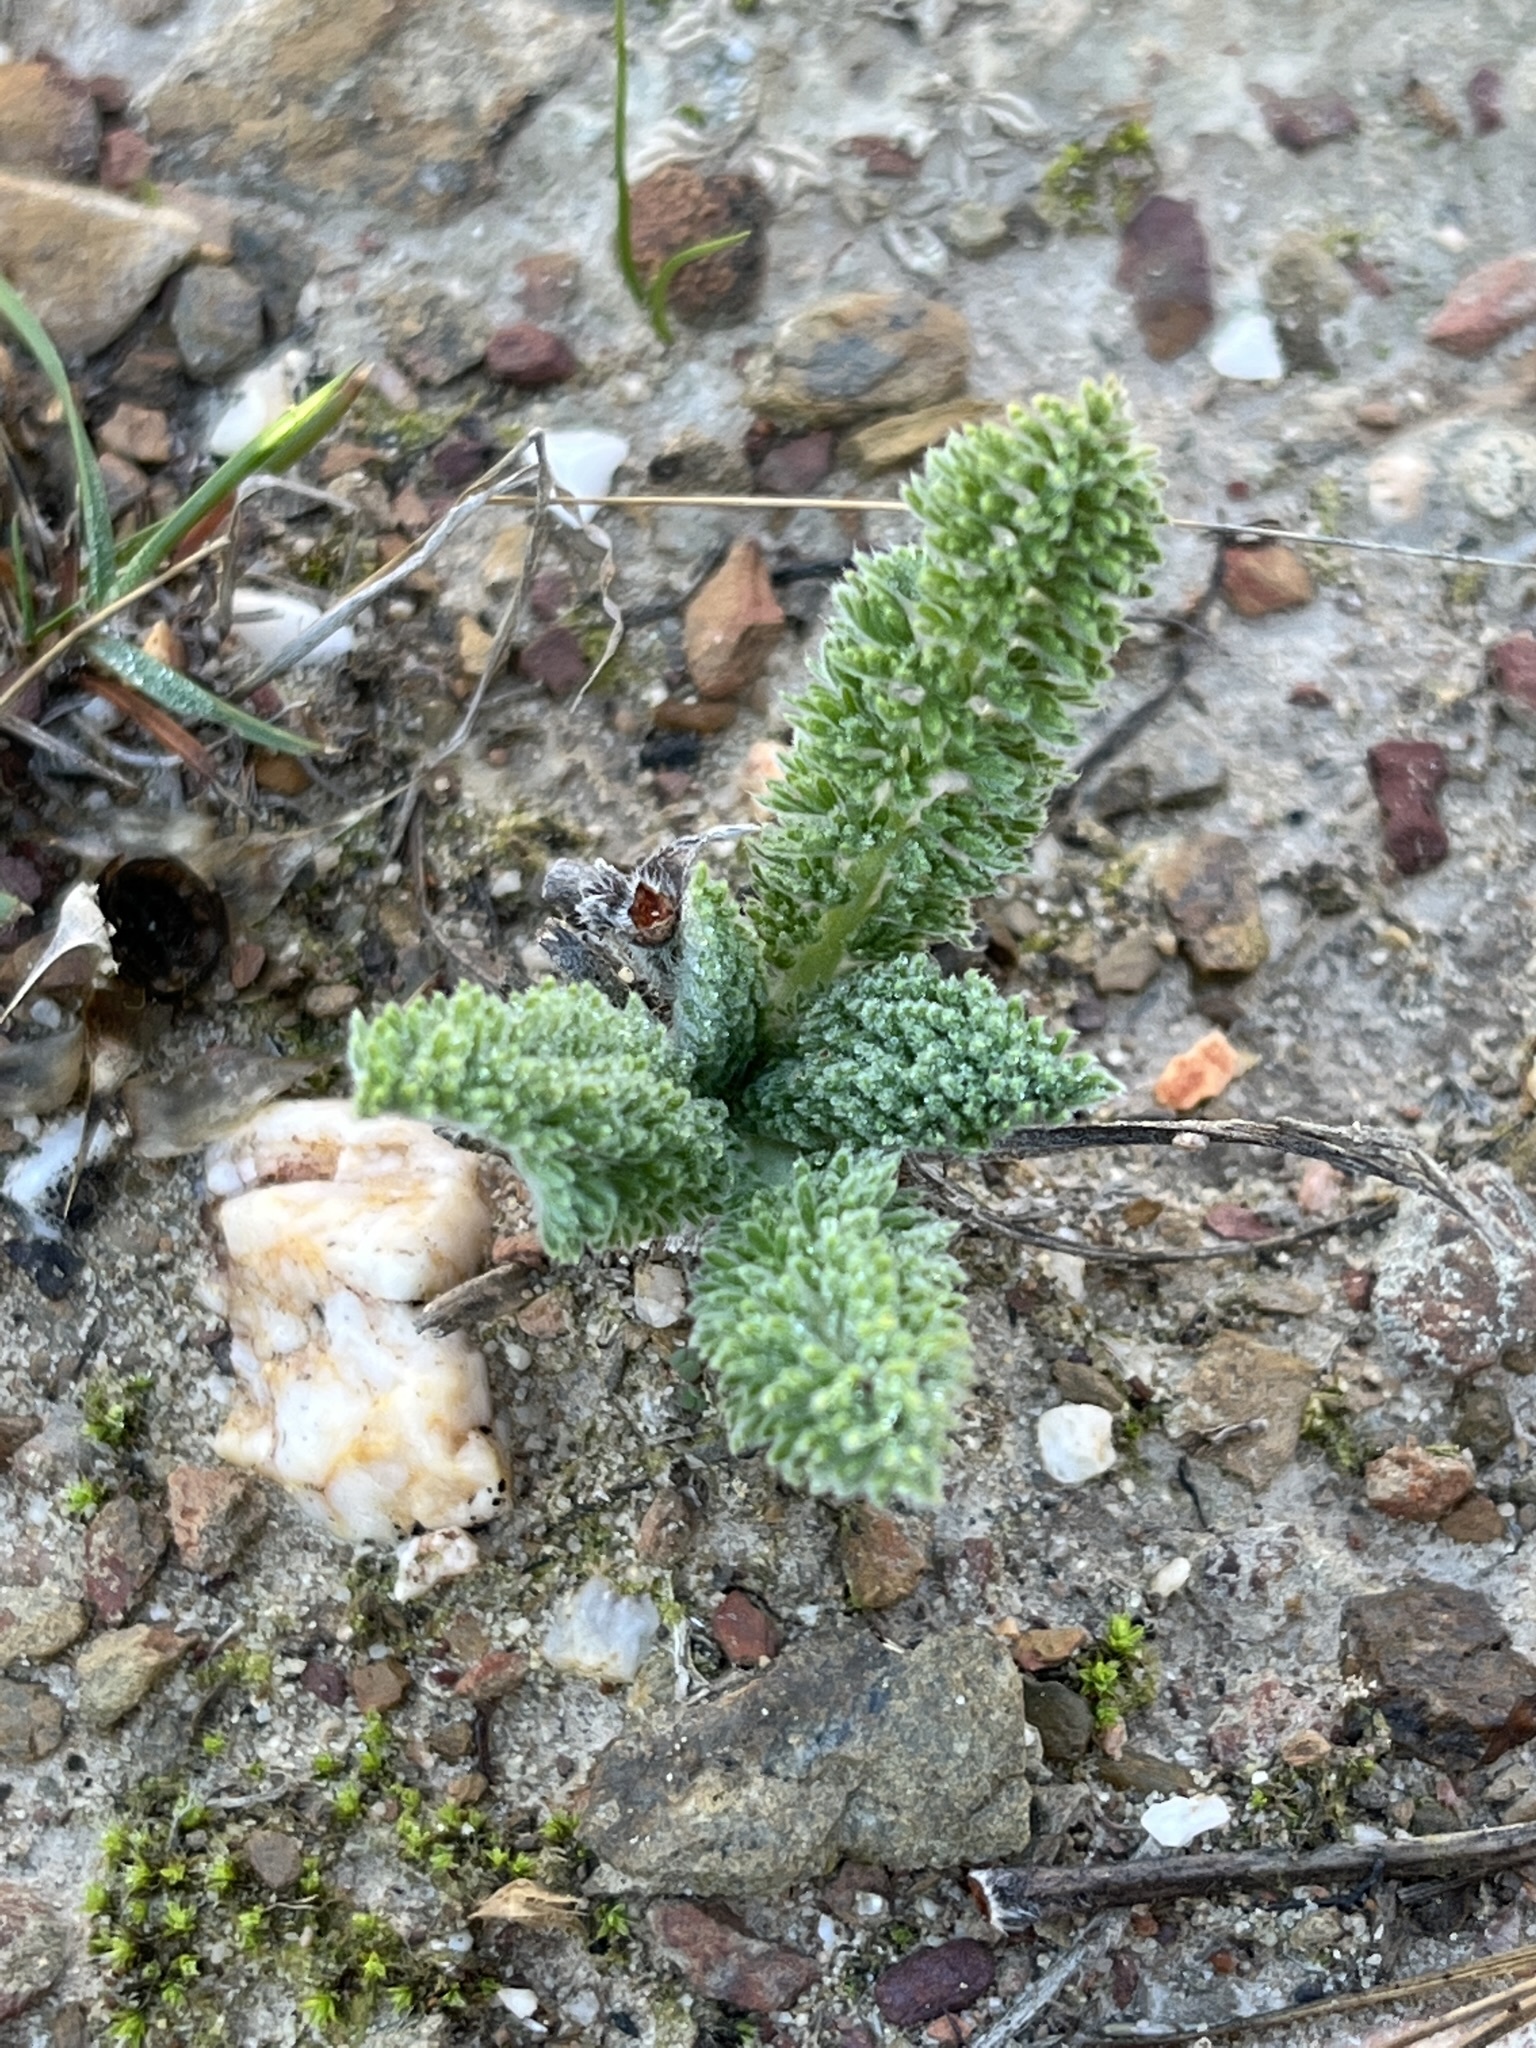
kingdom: Plantae
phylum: Tracheophyta
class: Magnoliopsida
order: Geraniales
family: Geraniaceae
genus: Pelargonium
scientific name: Pelargonium rapaceum
